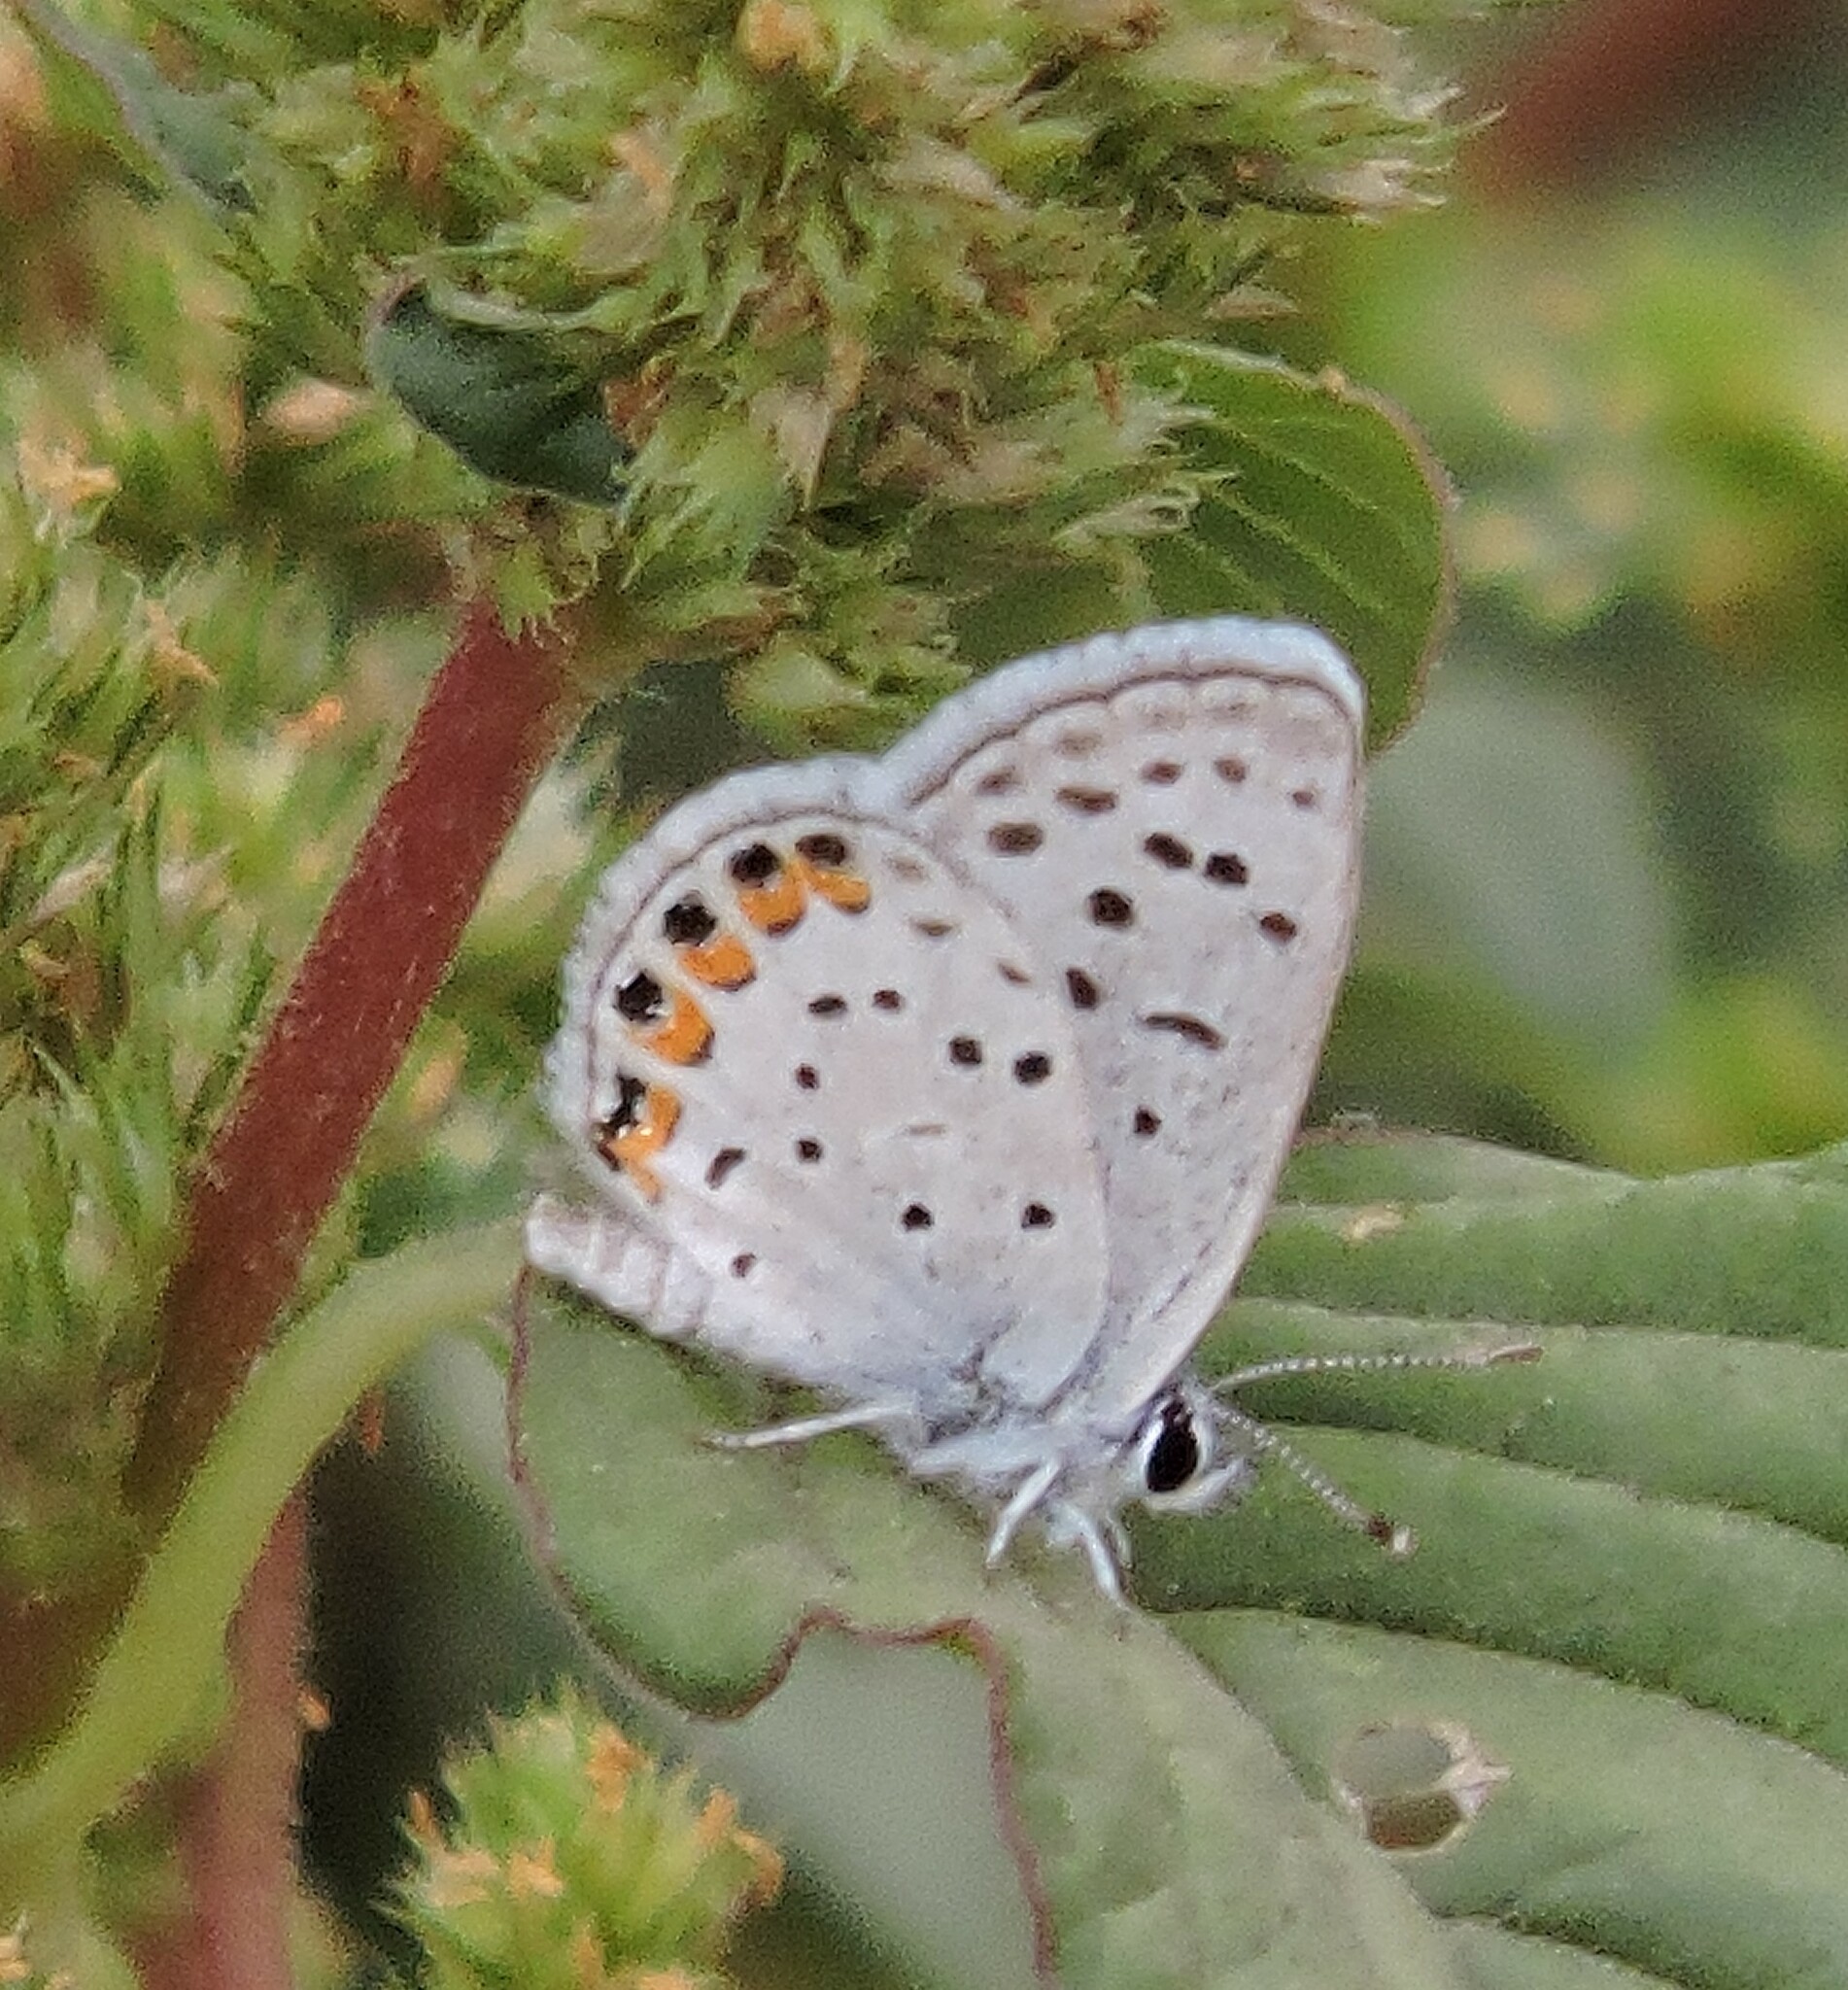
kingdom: Animalia
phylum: Arthropoda
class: Insecta
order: Lepidoptera
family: Lycaenidae
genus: Icaricia
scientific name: Icaricia acmon
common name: Acmon blue
